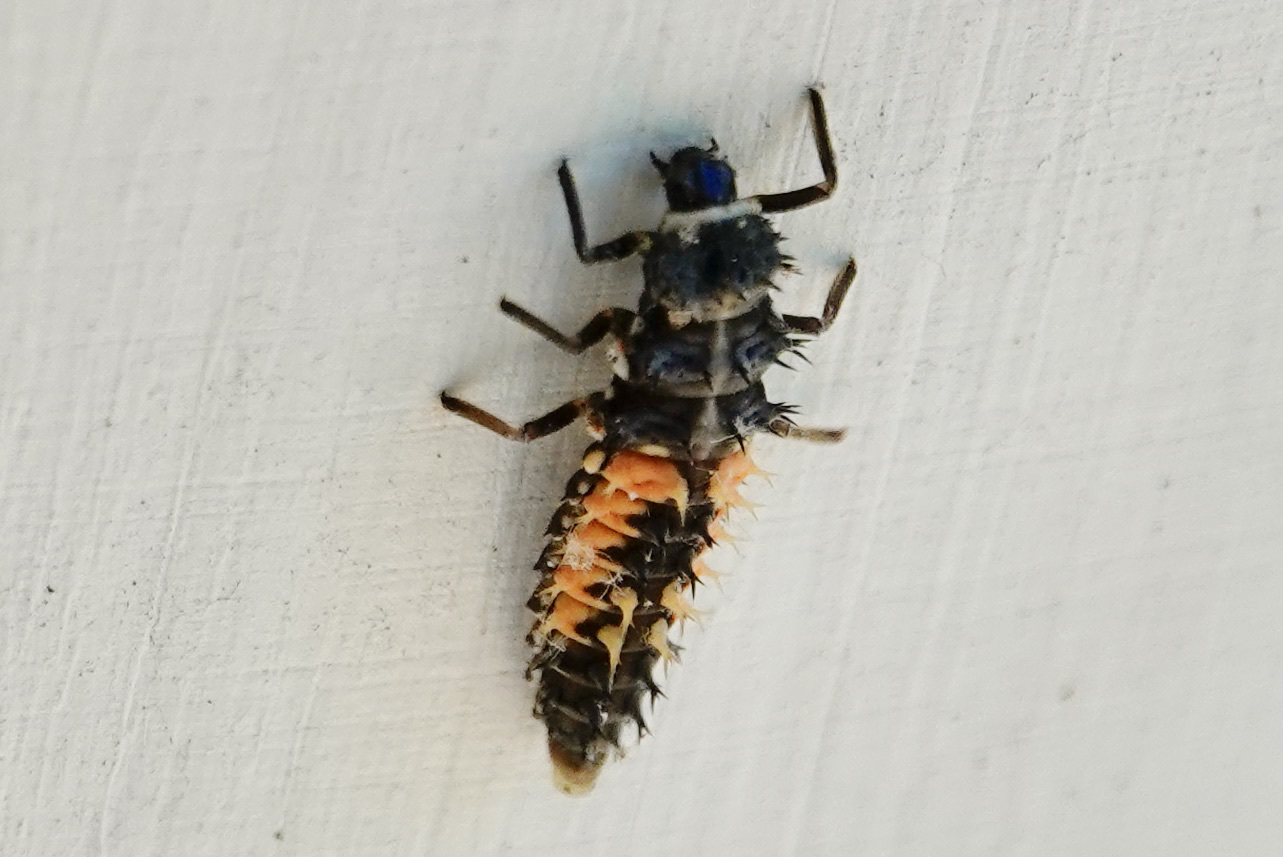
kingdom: Animalia
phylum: Arthropoda
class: Insecta
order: Coleoptera
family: Coccinellidae
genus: Harmonia
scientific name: Harmonia axyridis
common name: Harlequin ladybird
